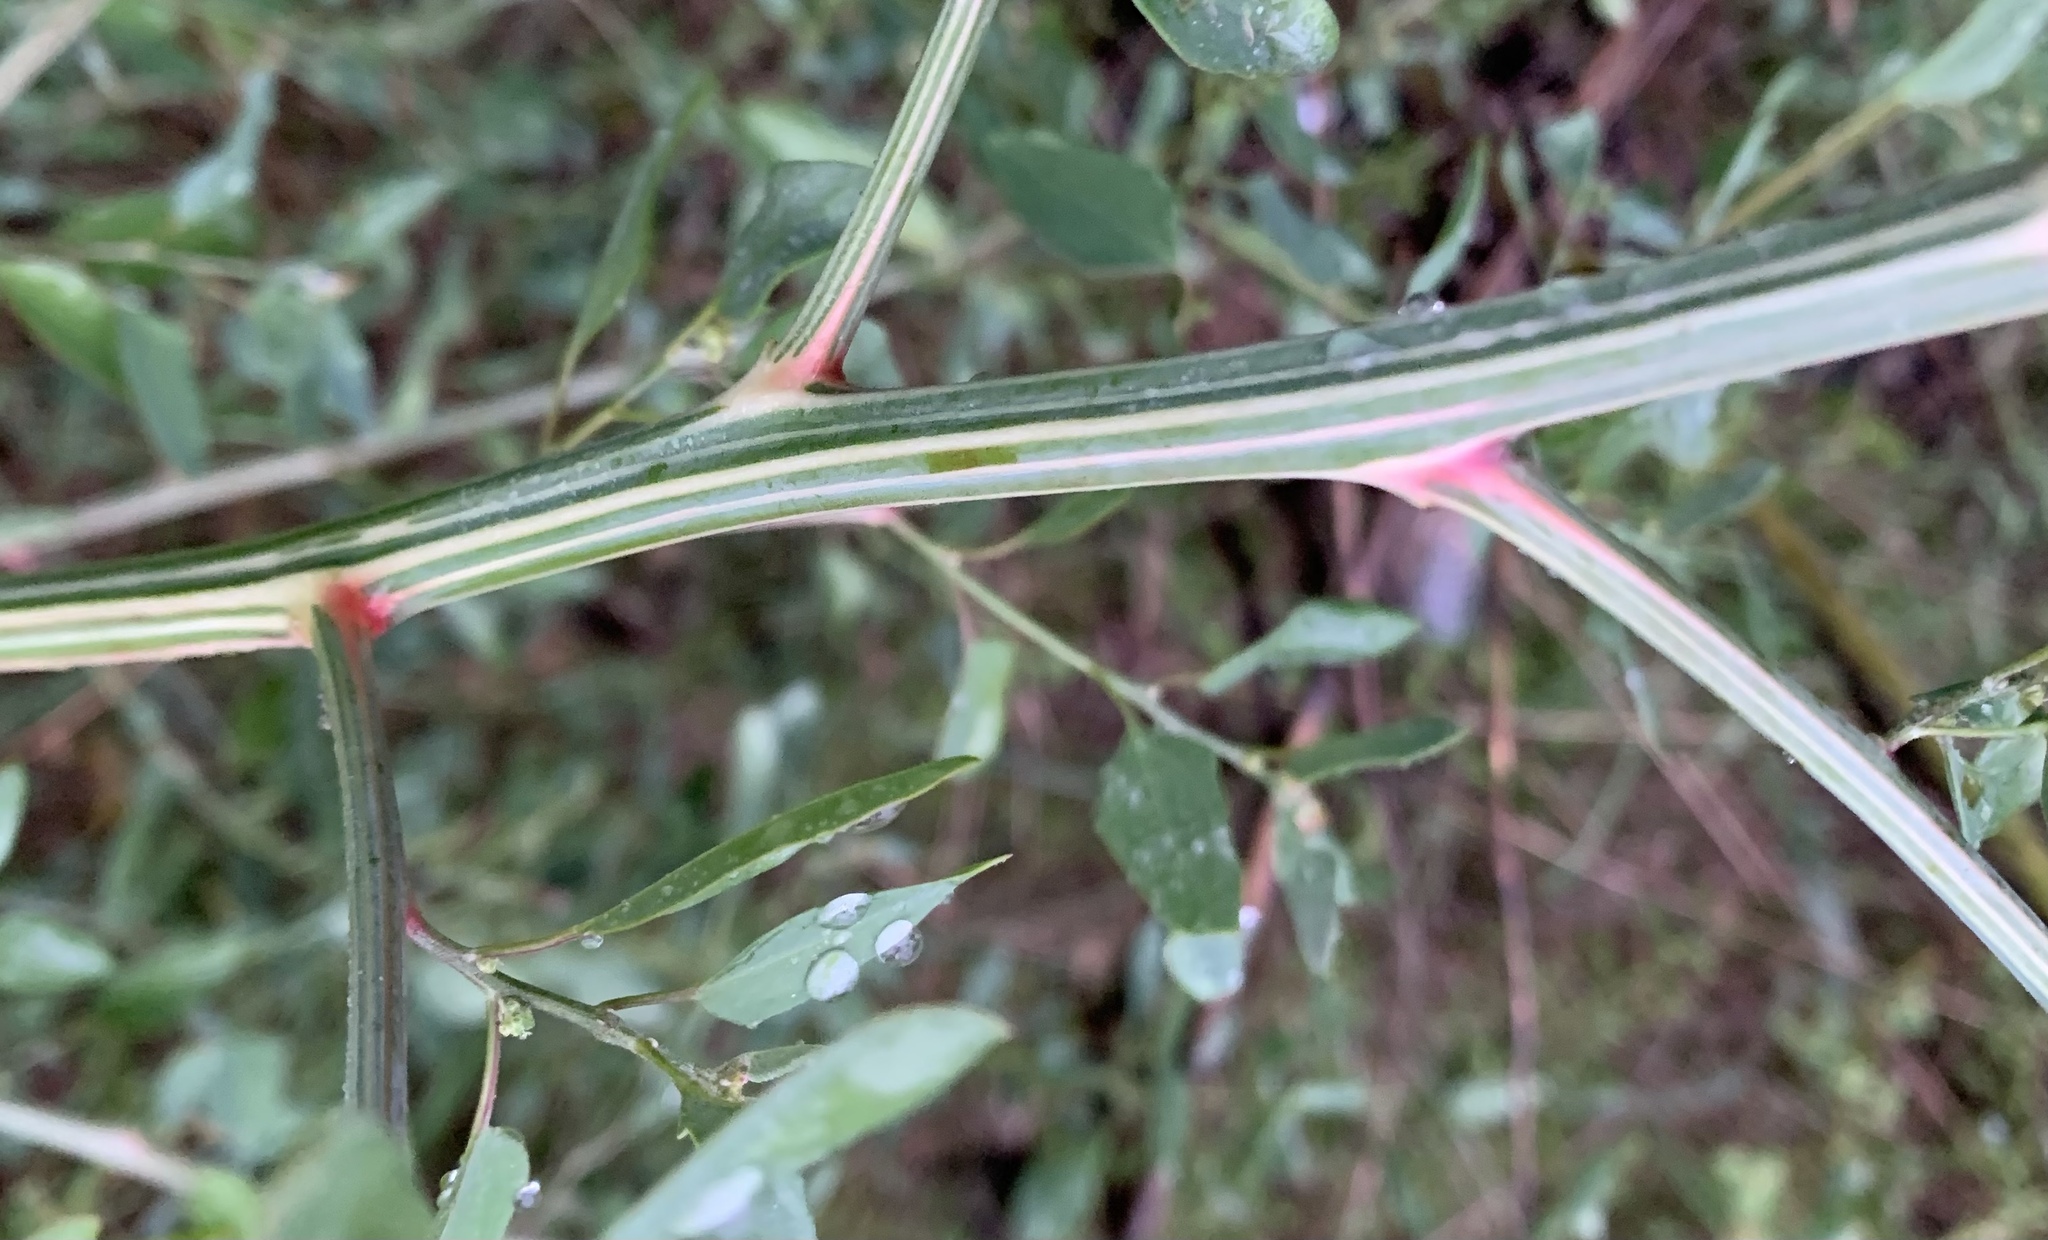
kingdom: Plantae
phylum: Tracheophyta
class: Magnoliopsida
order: Caryophyllales
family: Amaranthaceae
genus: Chenopodium
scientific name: Chenopodium album
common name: Fat-hen
